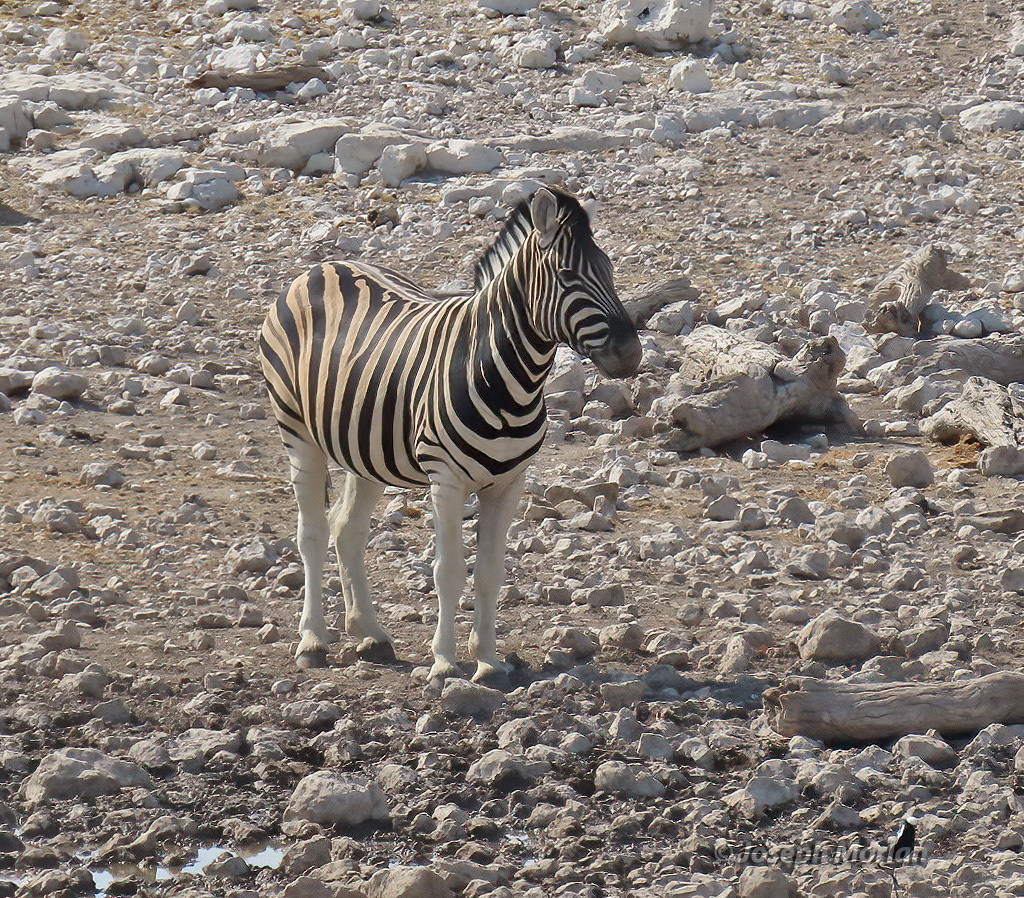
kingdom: Animalia
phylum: Chordata
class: Mammalia
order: Perissodactyla
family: Equidae
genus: Equus
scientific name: Equus quagga
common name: Plains zebra
